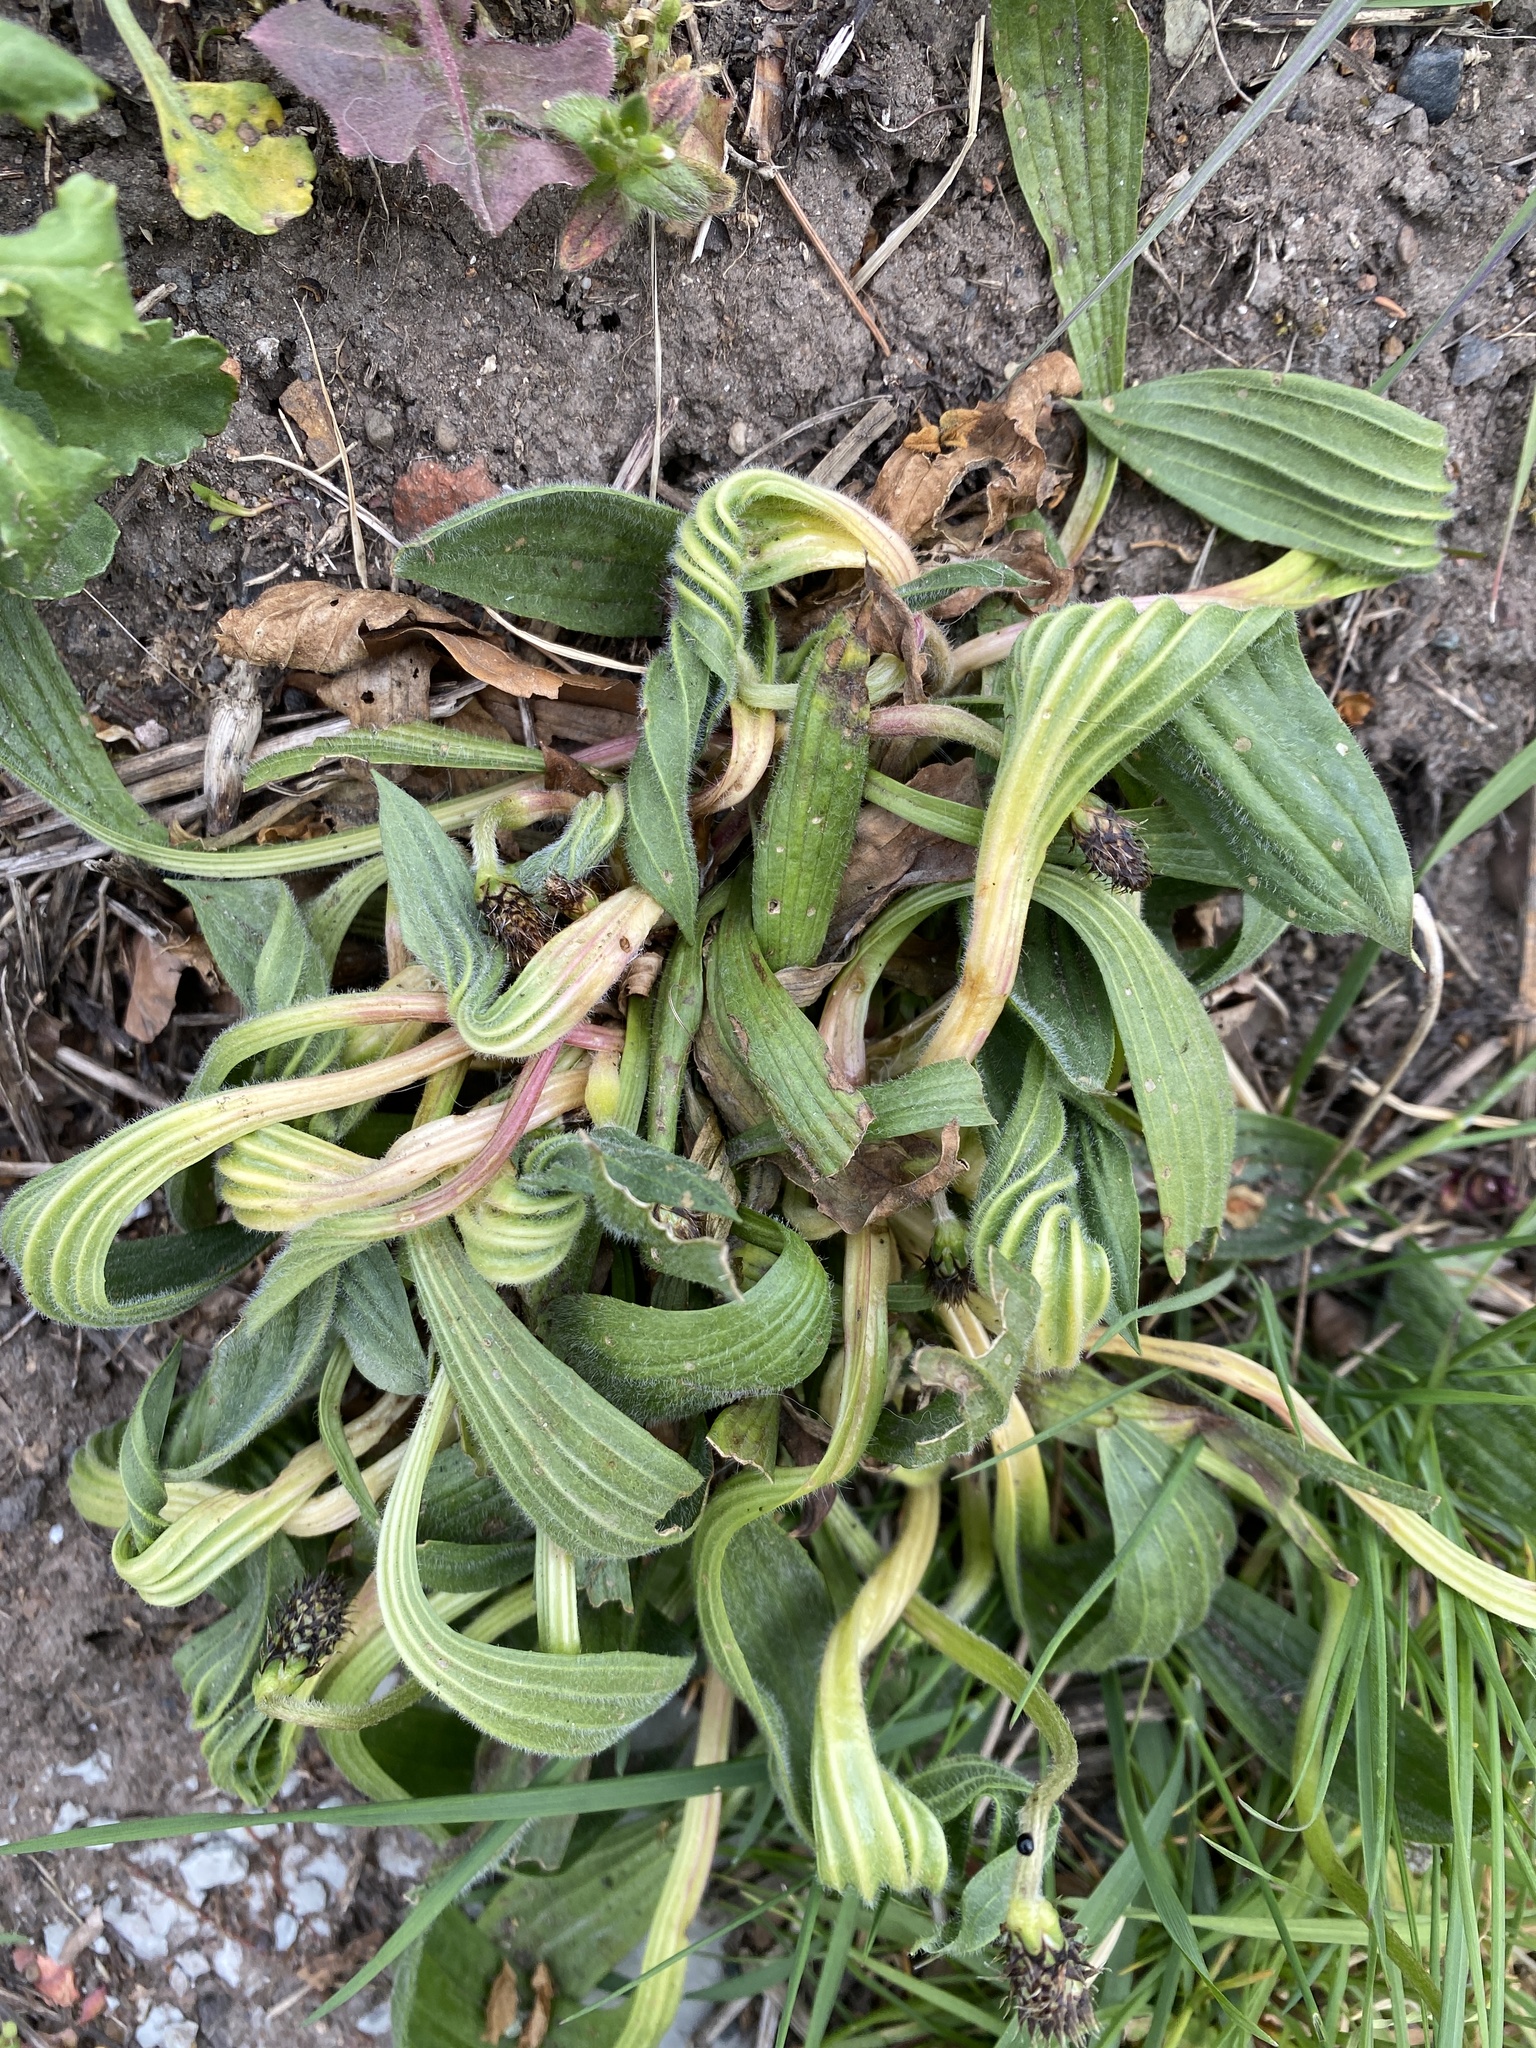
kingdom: Plantae
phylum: Tracheophyta
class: Magnoliopsida
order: Lamiales
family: Plantaginaceae
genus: Plantago
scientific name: Plantago lanceolata
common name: Ribwort plantain
